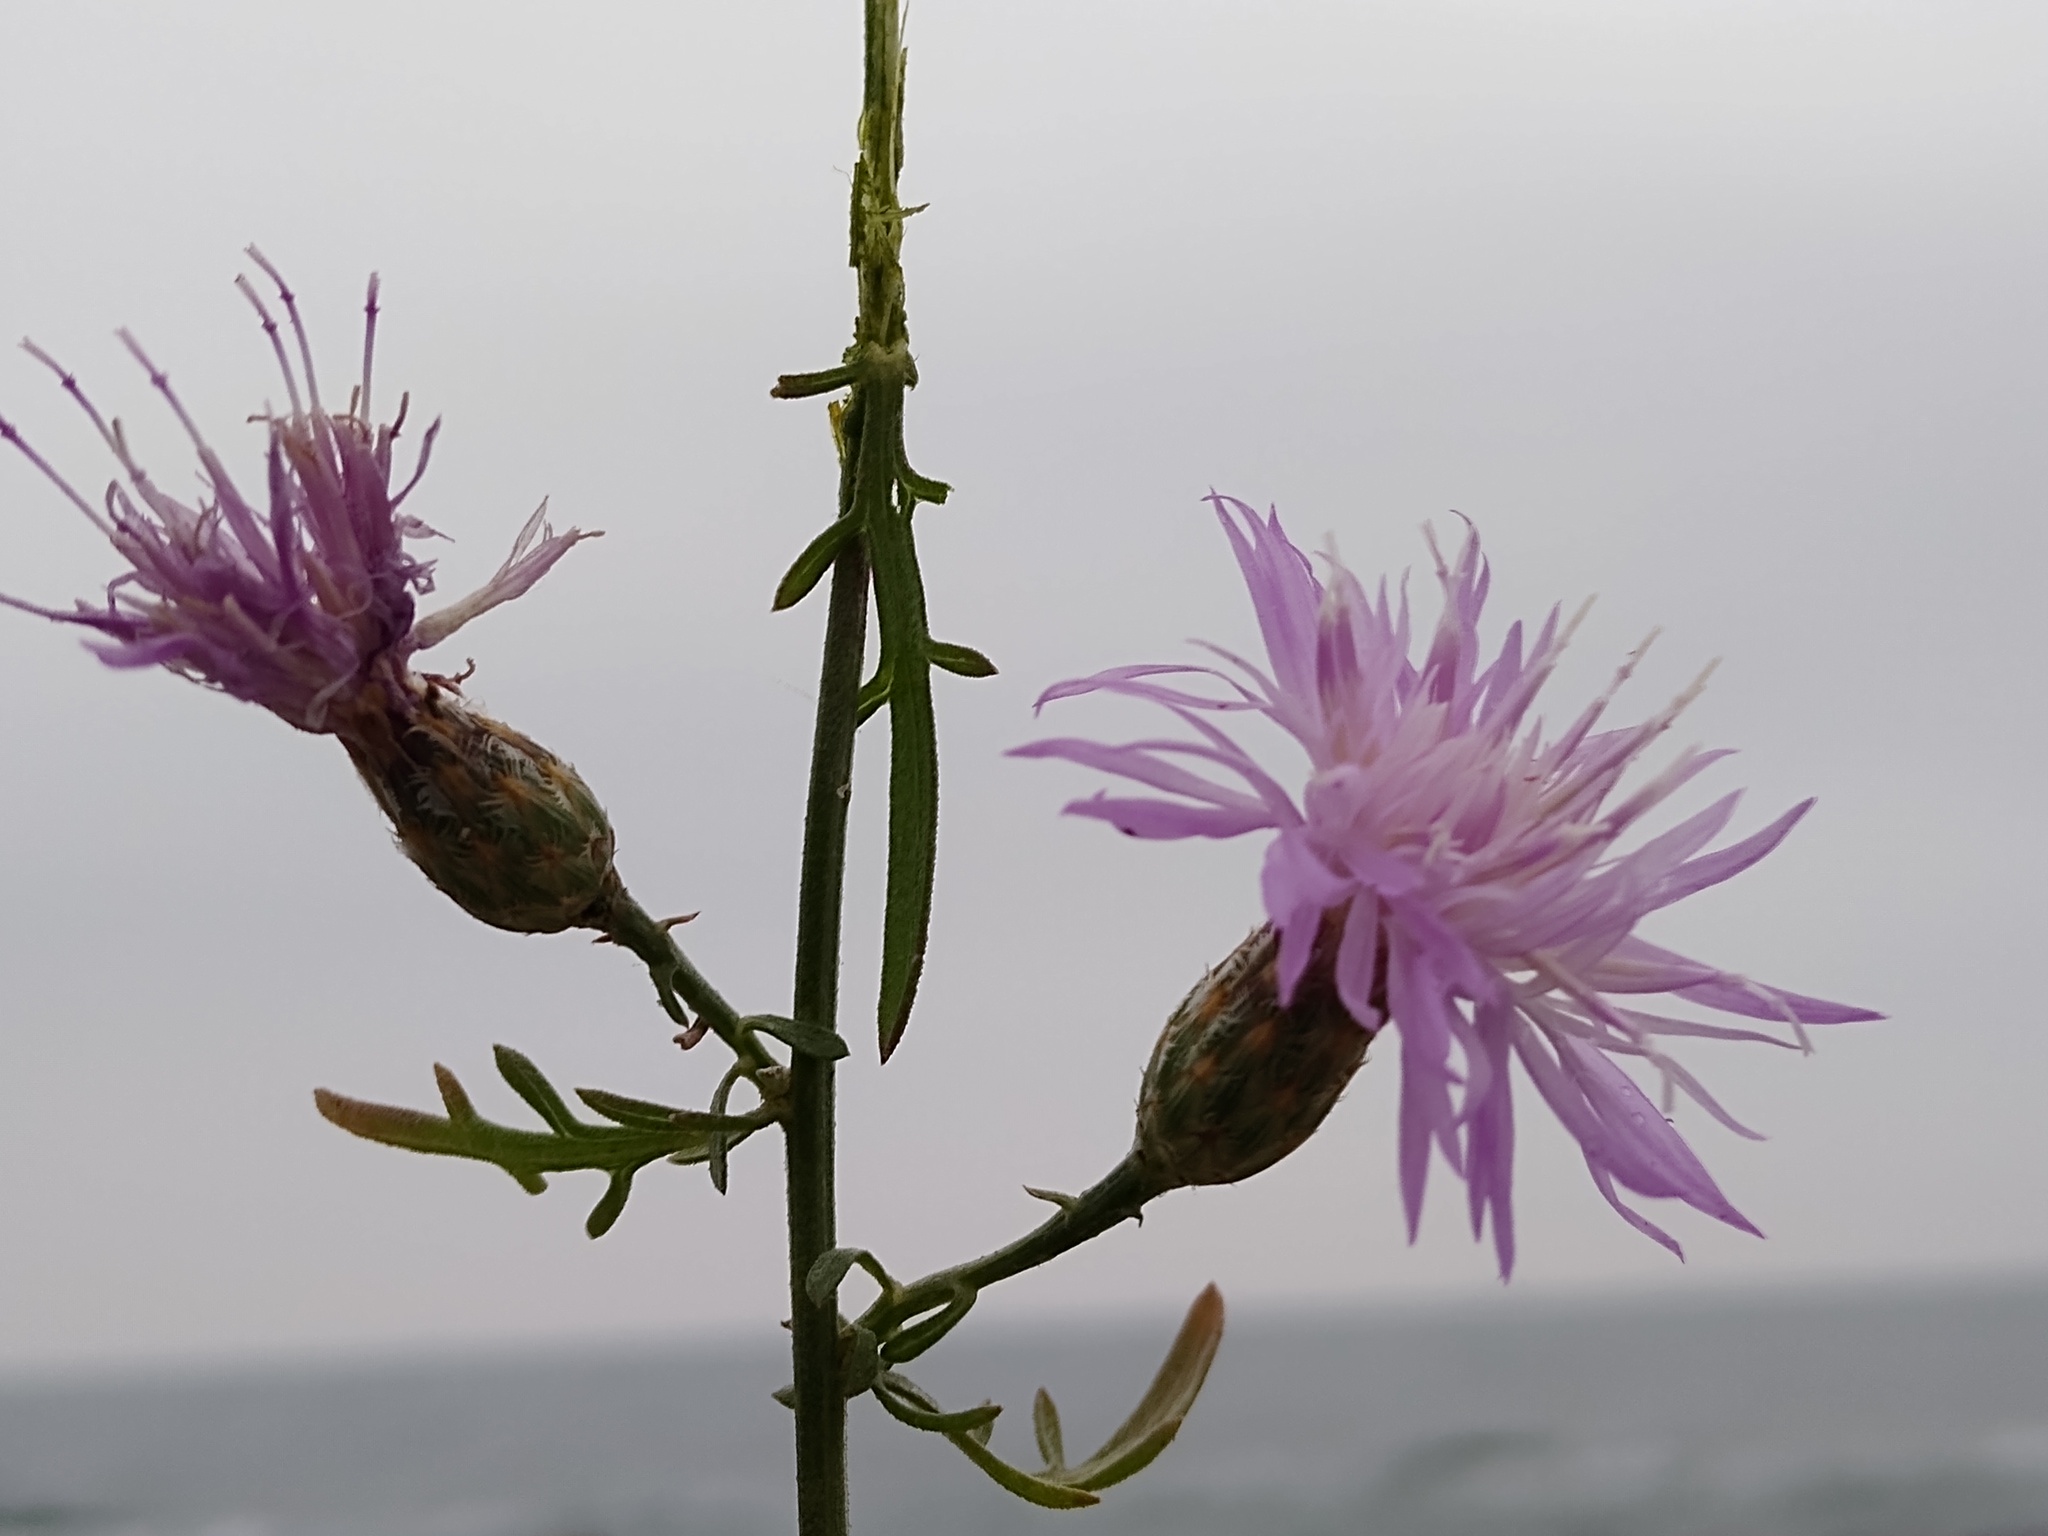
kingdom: Plantae
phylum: Tracheophyta
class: Magnoliopsida
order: Asterales
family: Asteraceae
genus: Centaurea
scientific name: Centaurea odessana
